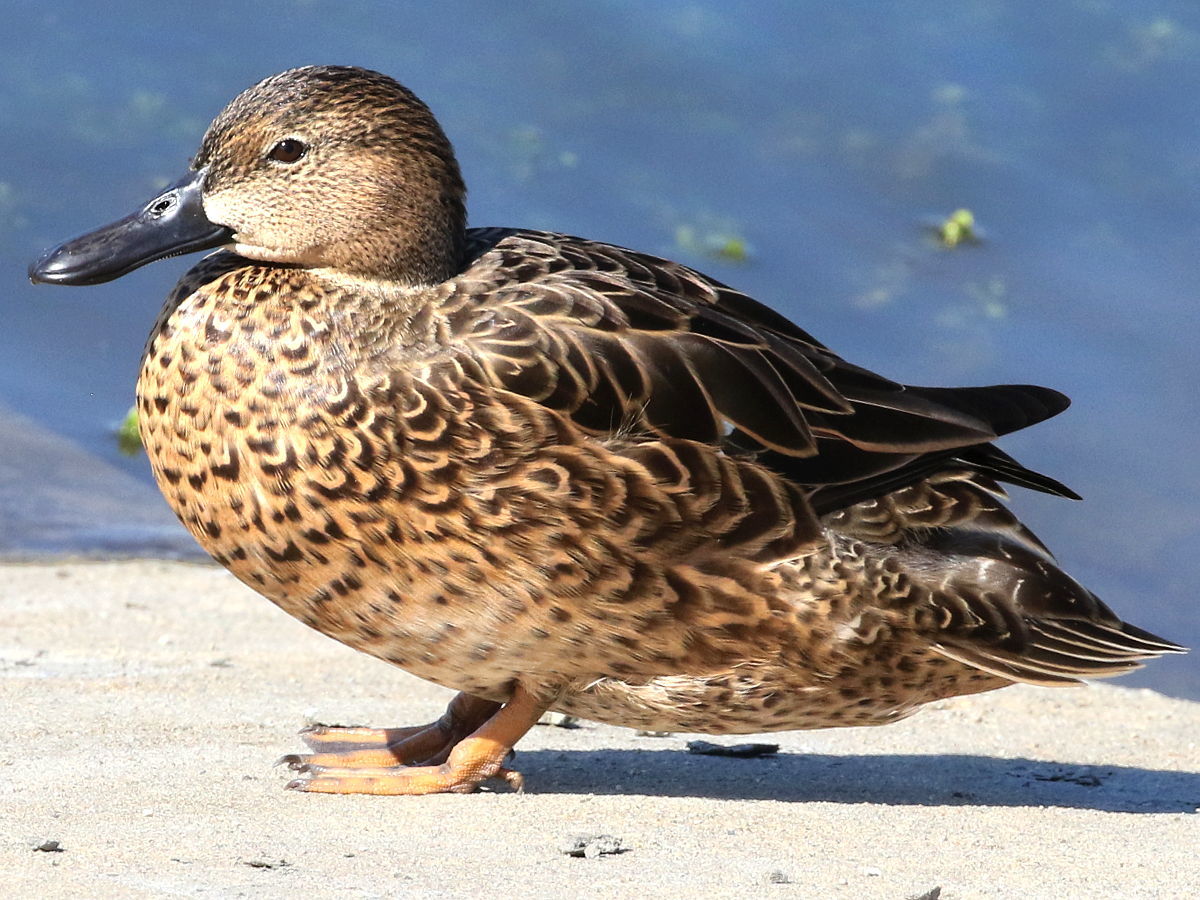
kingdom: Animalia
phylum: Chordata
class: Aves
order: Anseriformes
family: Anatidae
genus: Spatula
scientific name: Spatula cyanoptera
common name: Cinnamon teal
